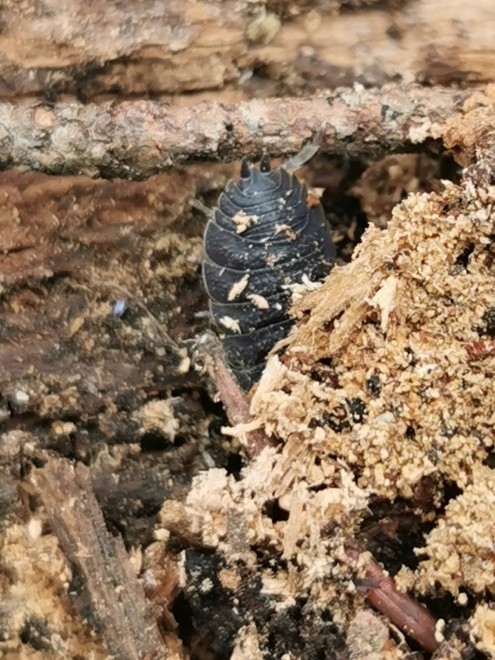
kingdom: Animalia
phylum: Arthropoda
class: Malacostraca
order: Isopoda
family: Porcellionidae
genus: Porcellio
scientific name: Porcellio scaber
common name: Common rough woodlouse
